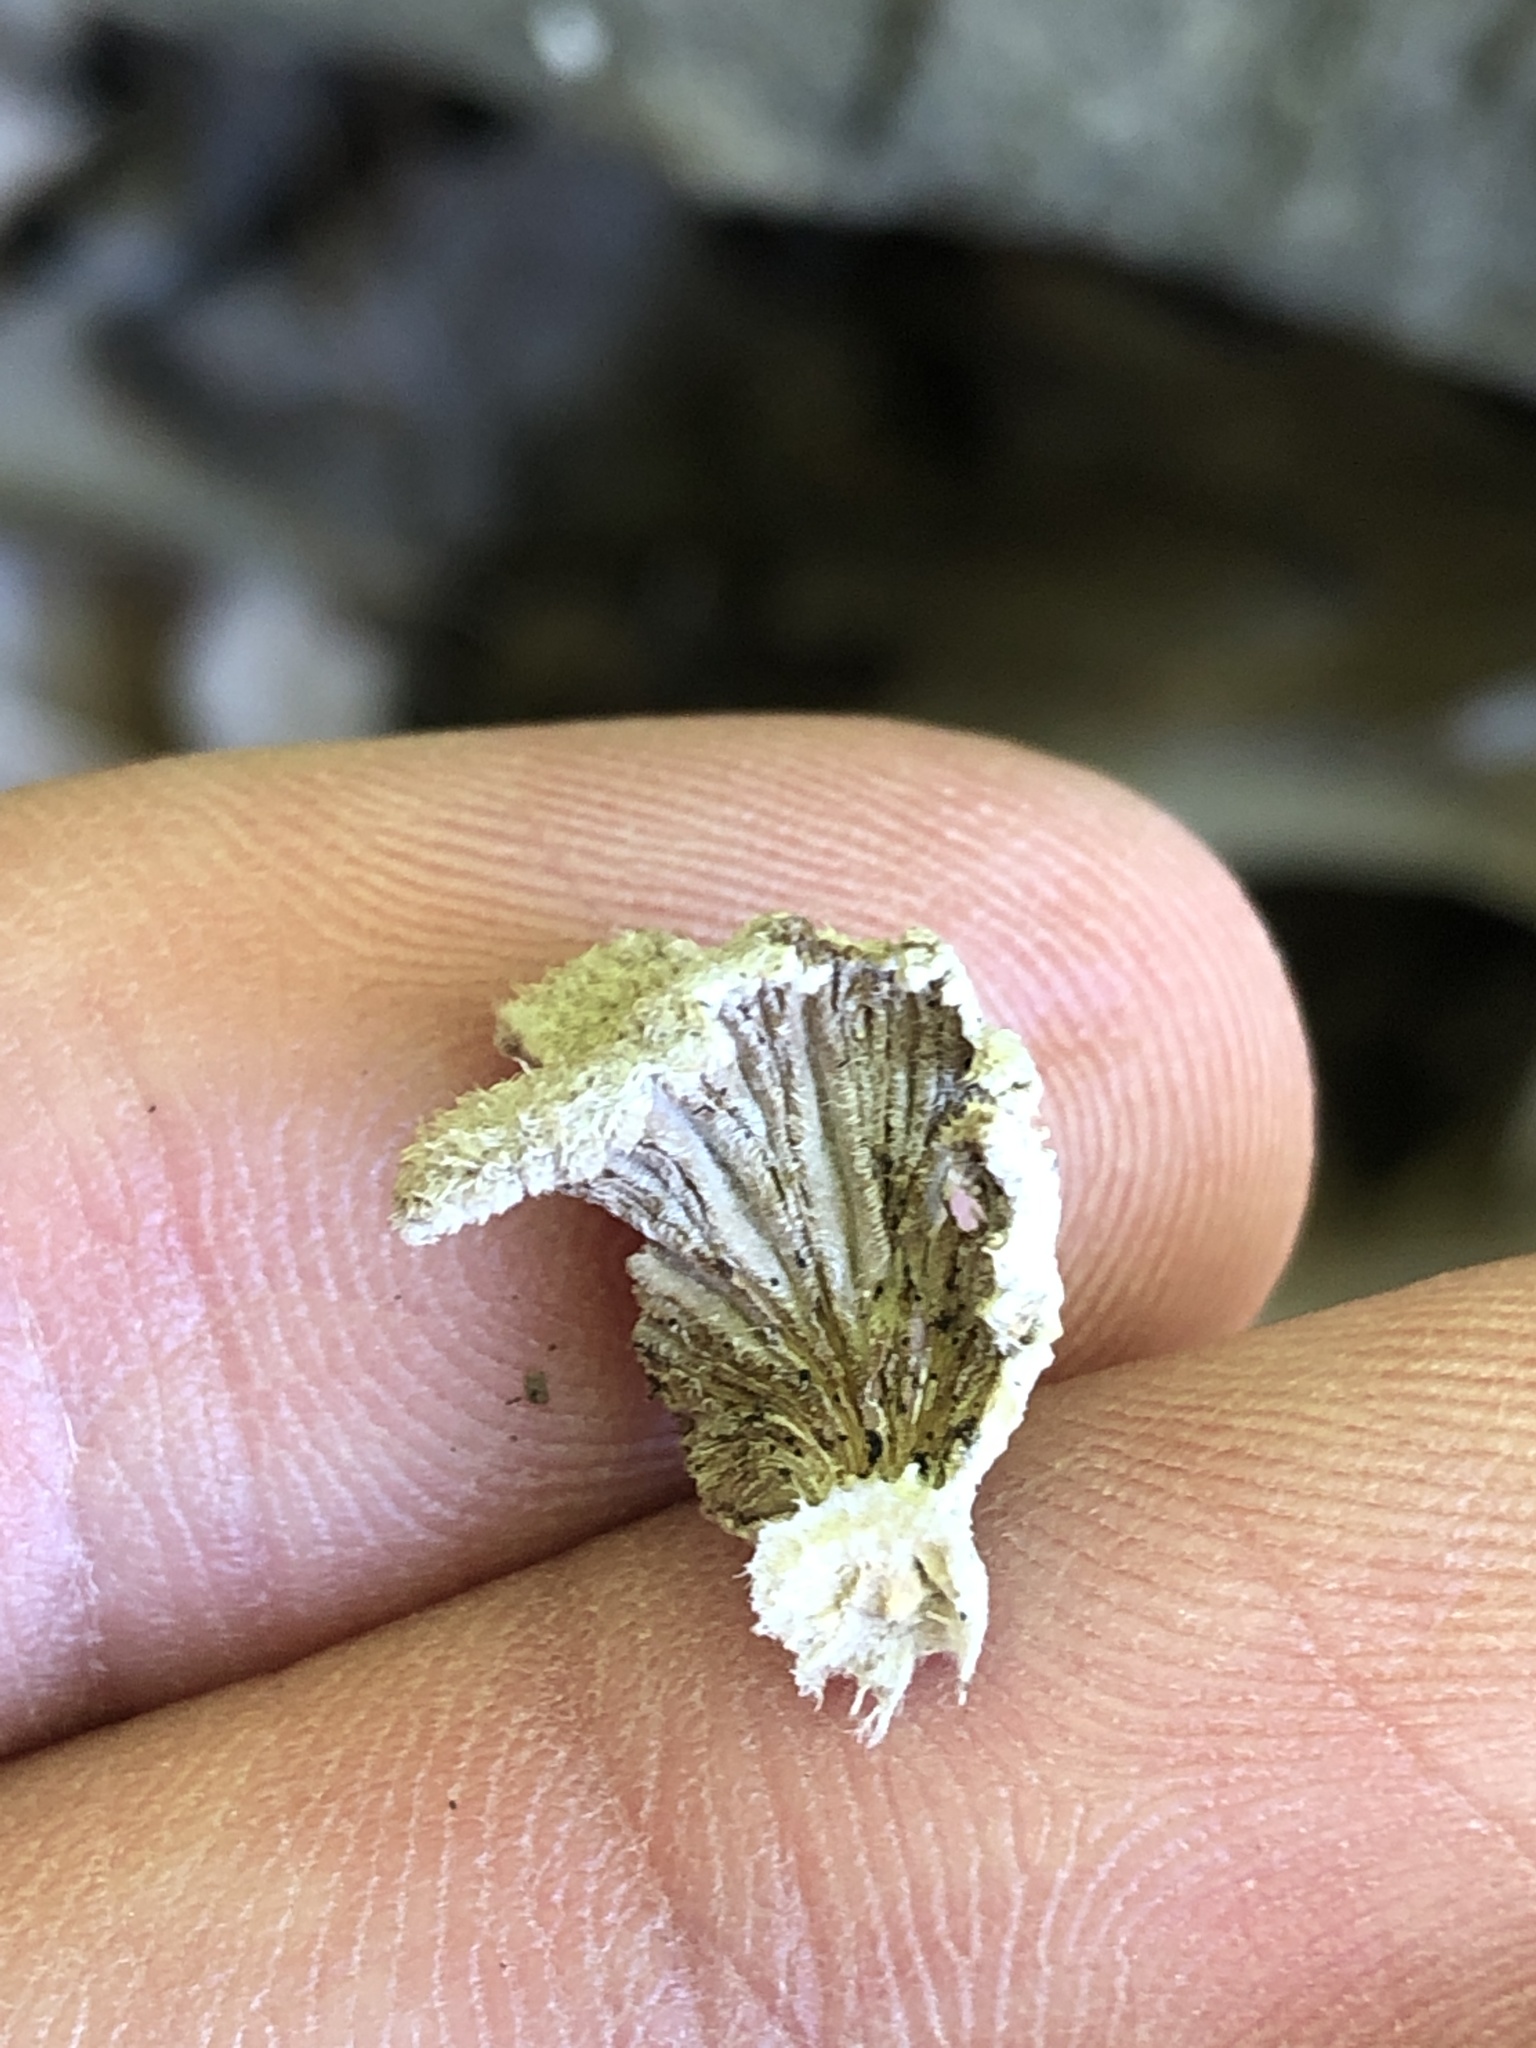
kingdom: Fungi
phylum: Basidiomycota
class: Agaricomycetes
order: Agaricales
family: Schizophyllaceae
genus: Schizophyllum
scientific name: Schizophyllum commune
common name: Common porecrust
